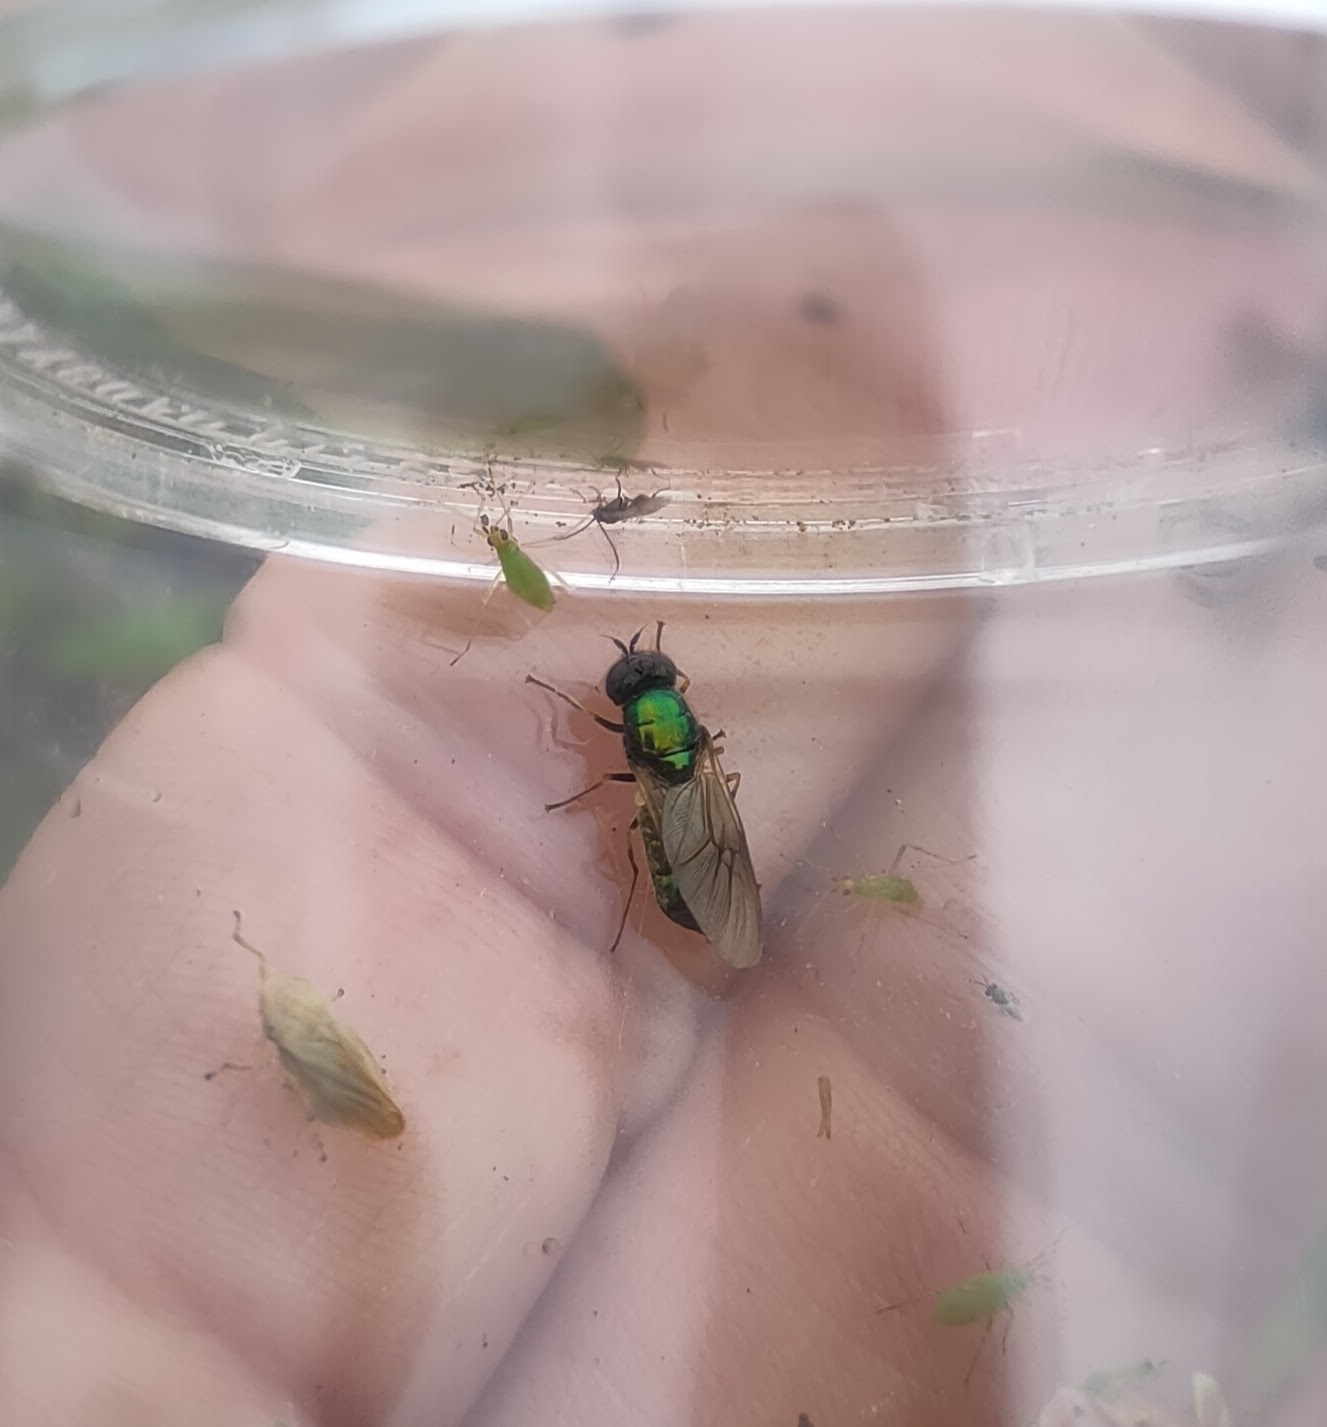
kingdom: Animalia
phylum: Arthropoda
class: Insecta
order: Diptera
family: Stratiomyidae
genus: Chloromyia
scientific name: Chloromyia formosa
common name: Soldier fly
